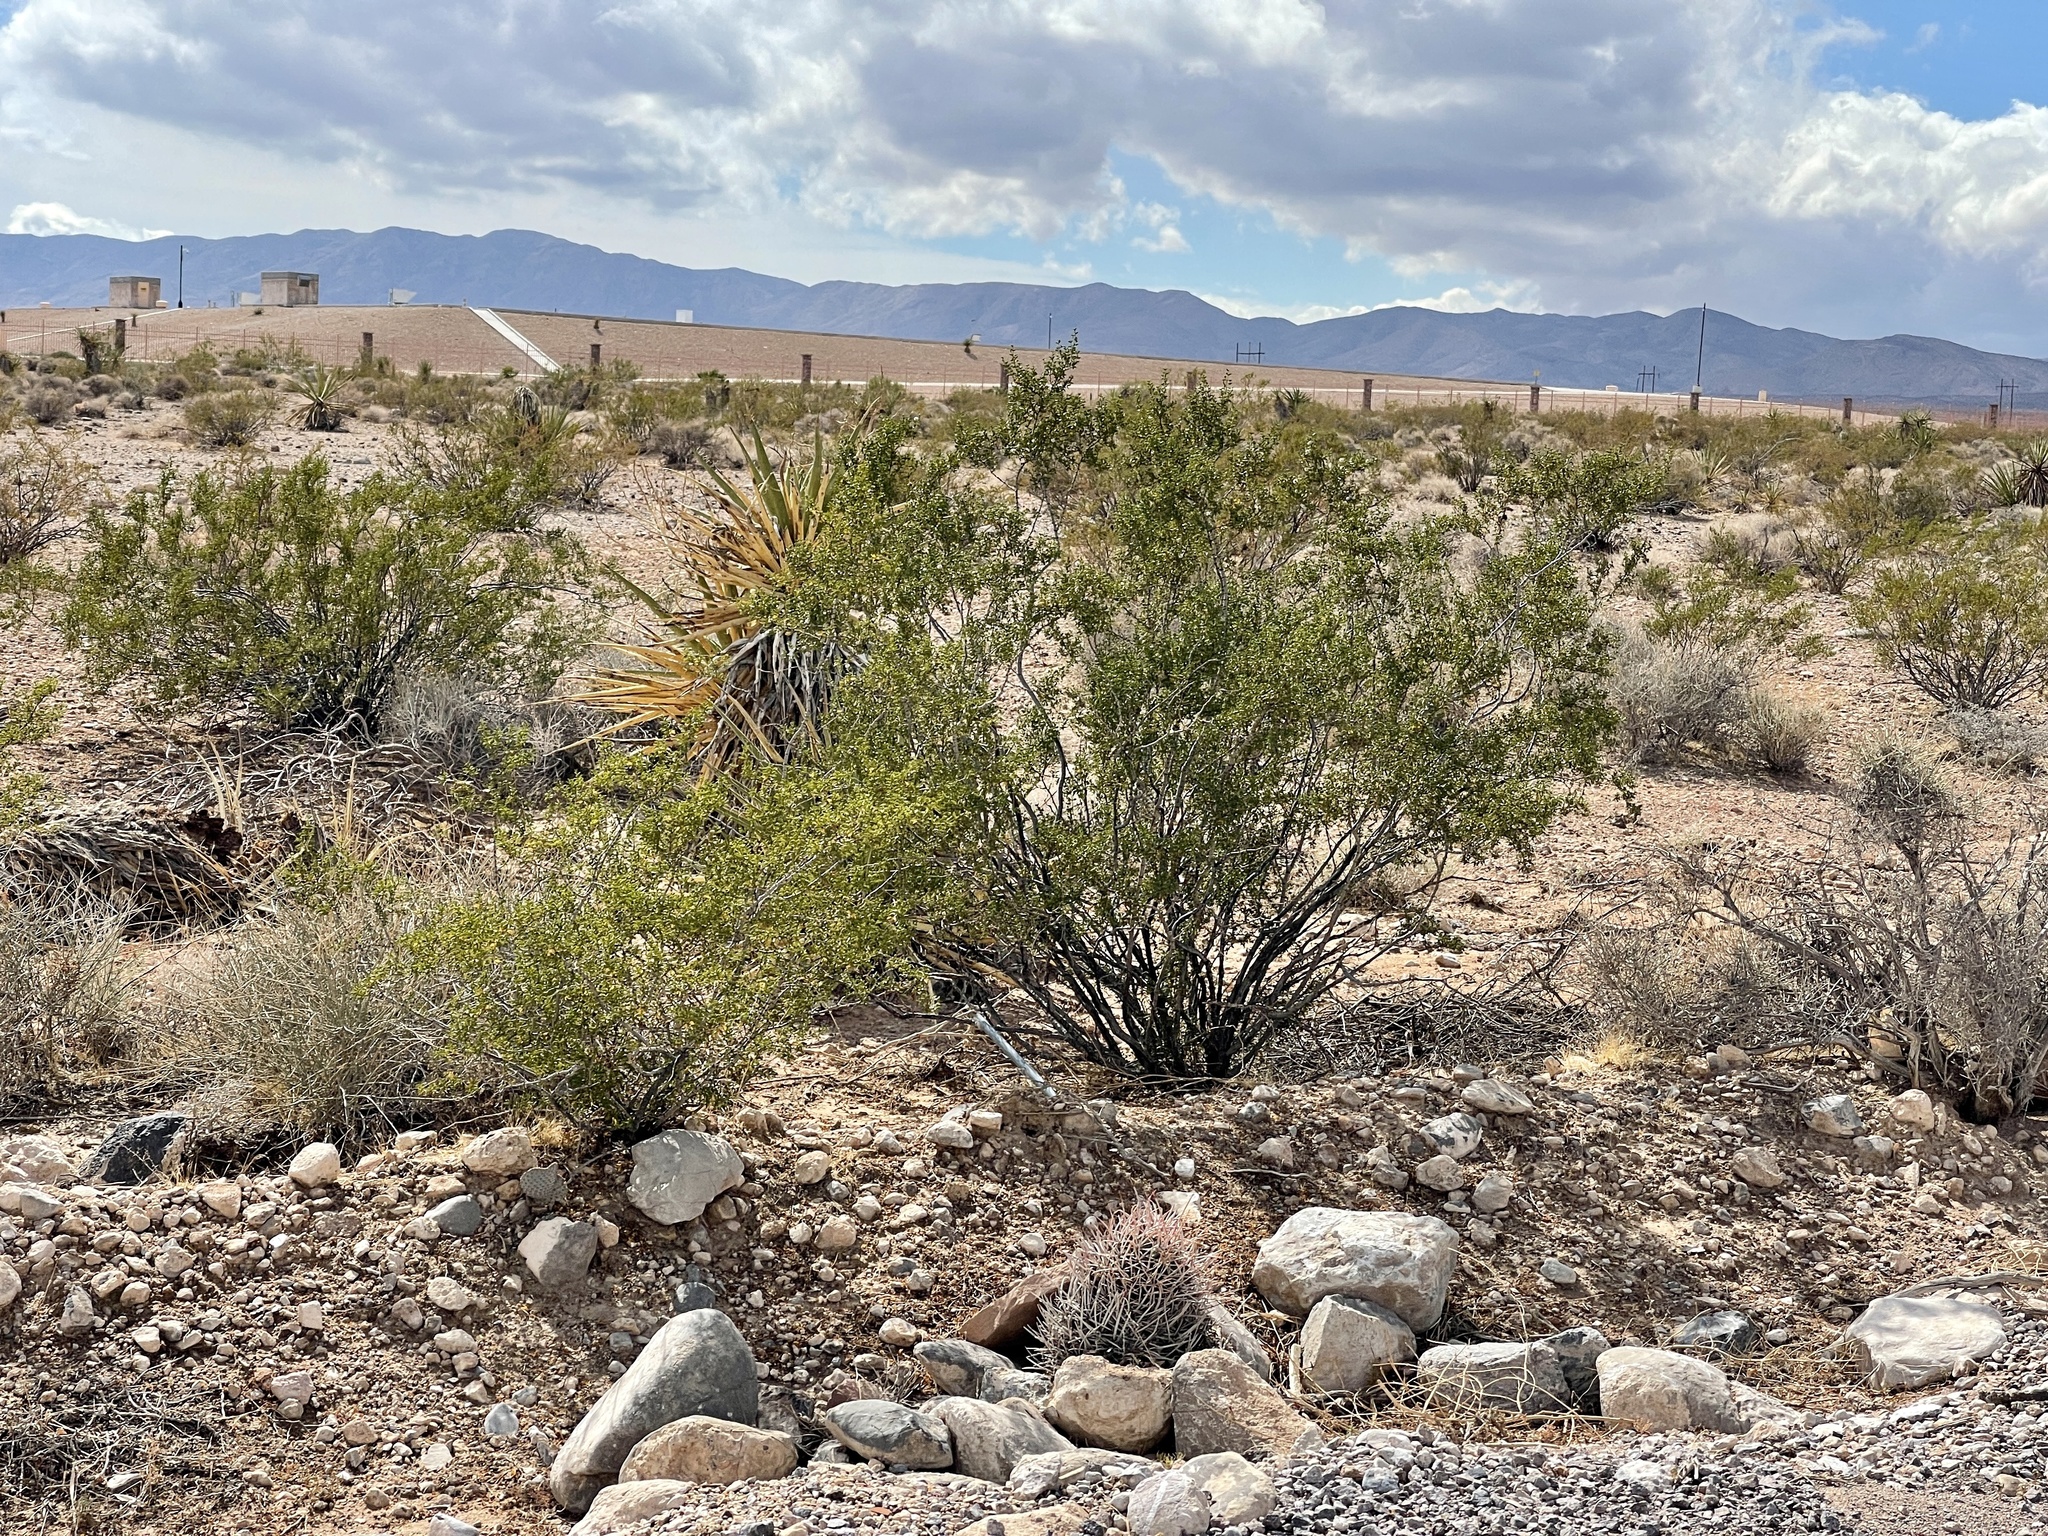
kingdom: Plantae
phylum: Tracheophyta
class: Magnoliopsida
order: Zygophyllales
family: Zygophyllaceae
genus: Larrea
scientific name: Larrea tridentata
